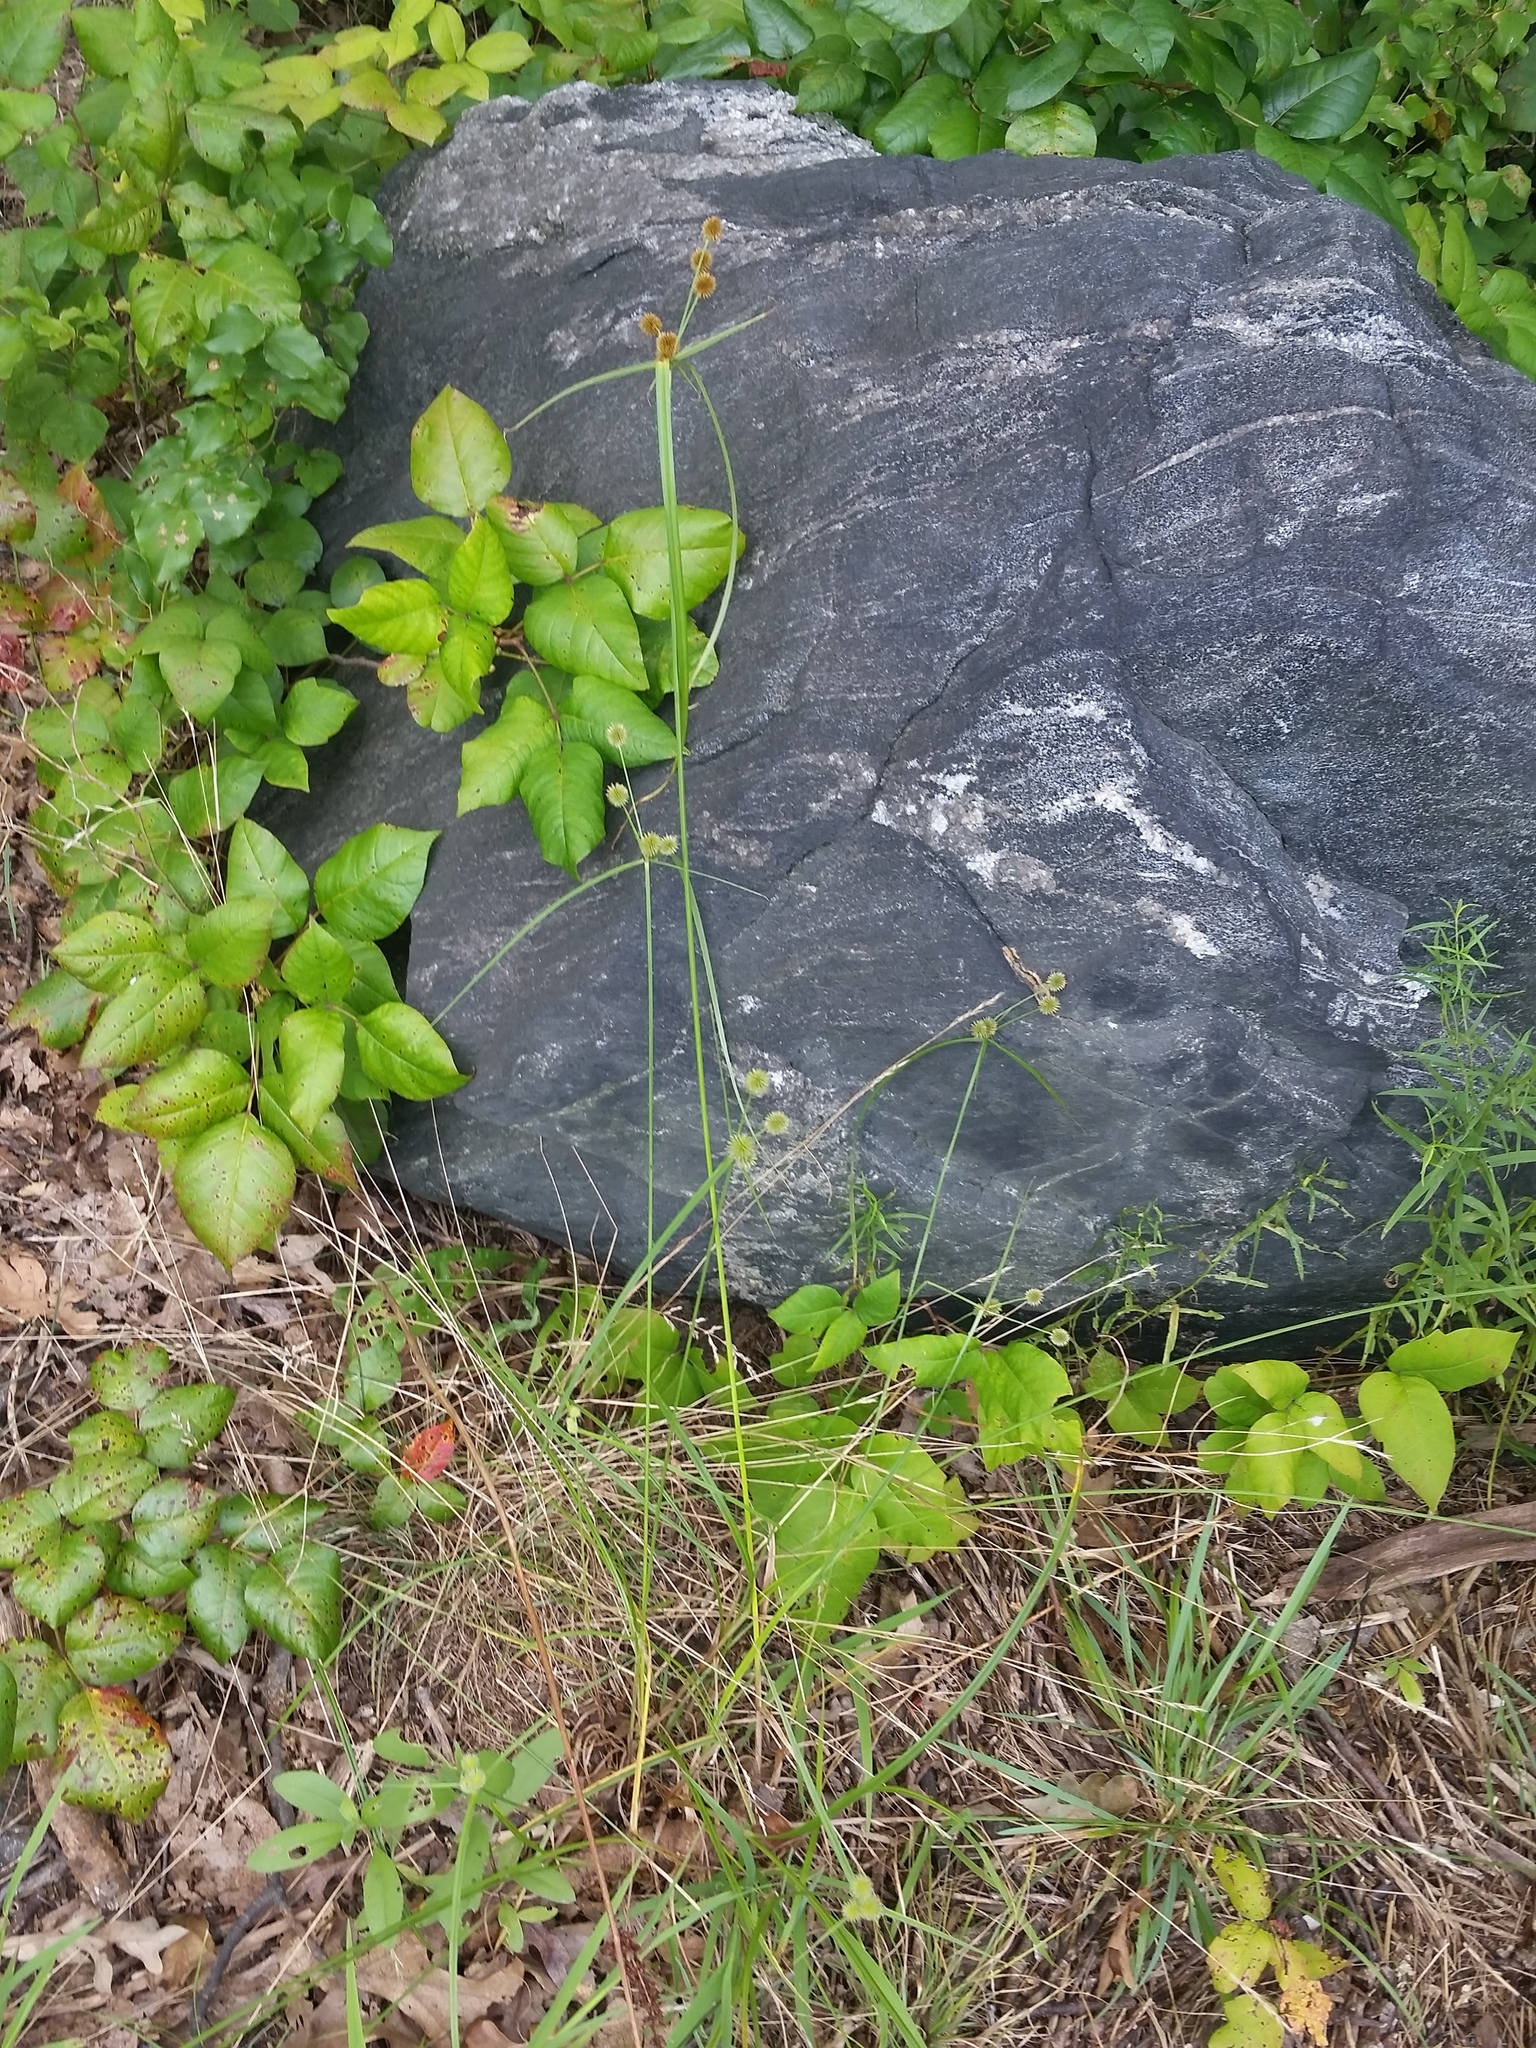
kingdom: Plantae
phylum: Tracheophyta
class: Liliopsida
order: Poales
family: Cyperaceae
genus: Cyperus
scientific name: Cyperus echinatus
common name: Teasel sedge
